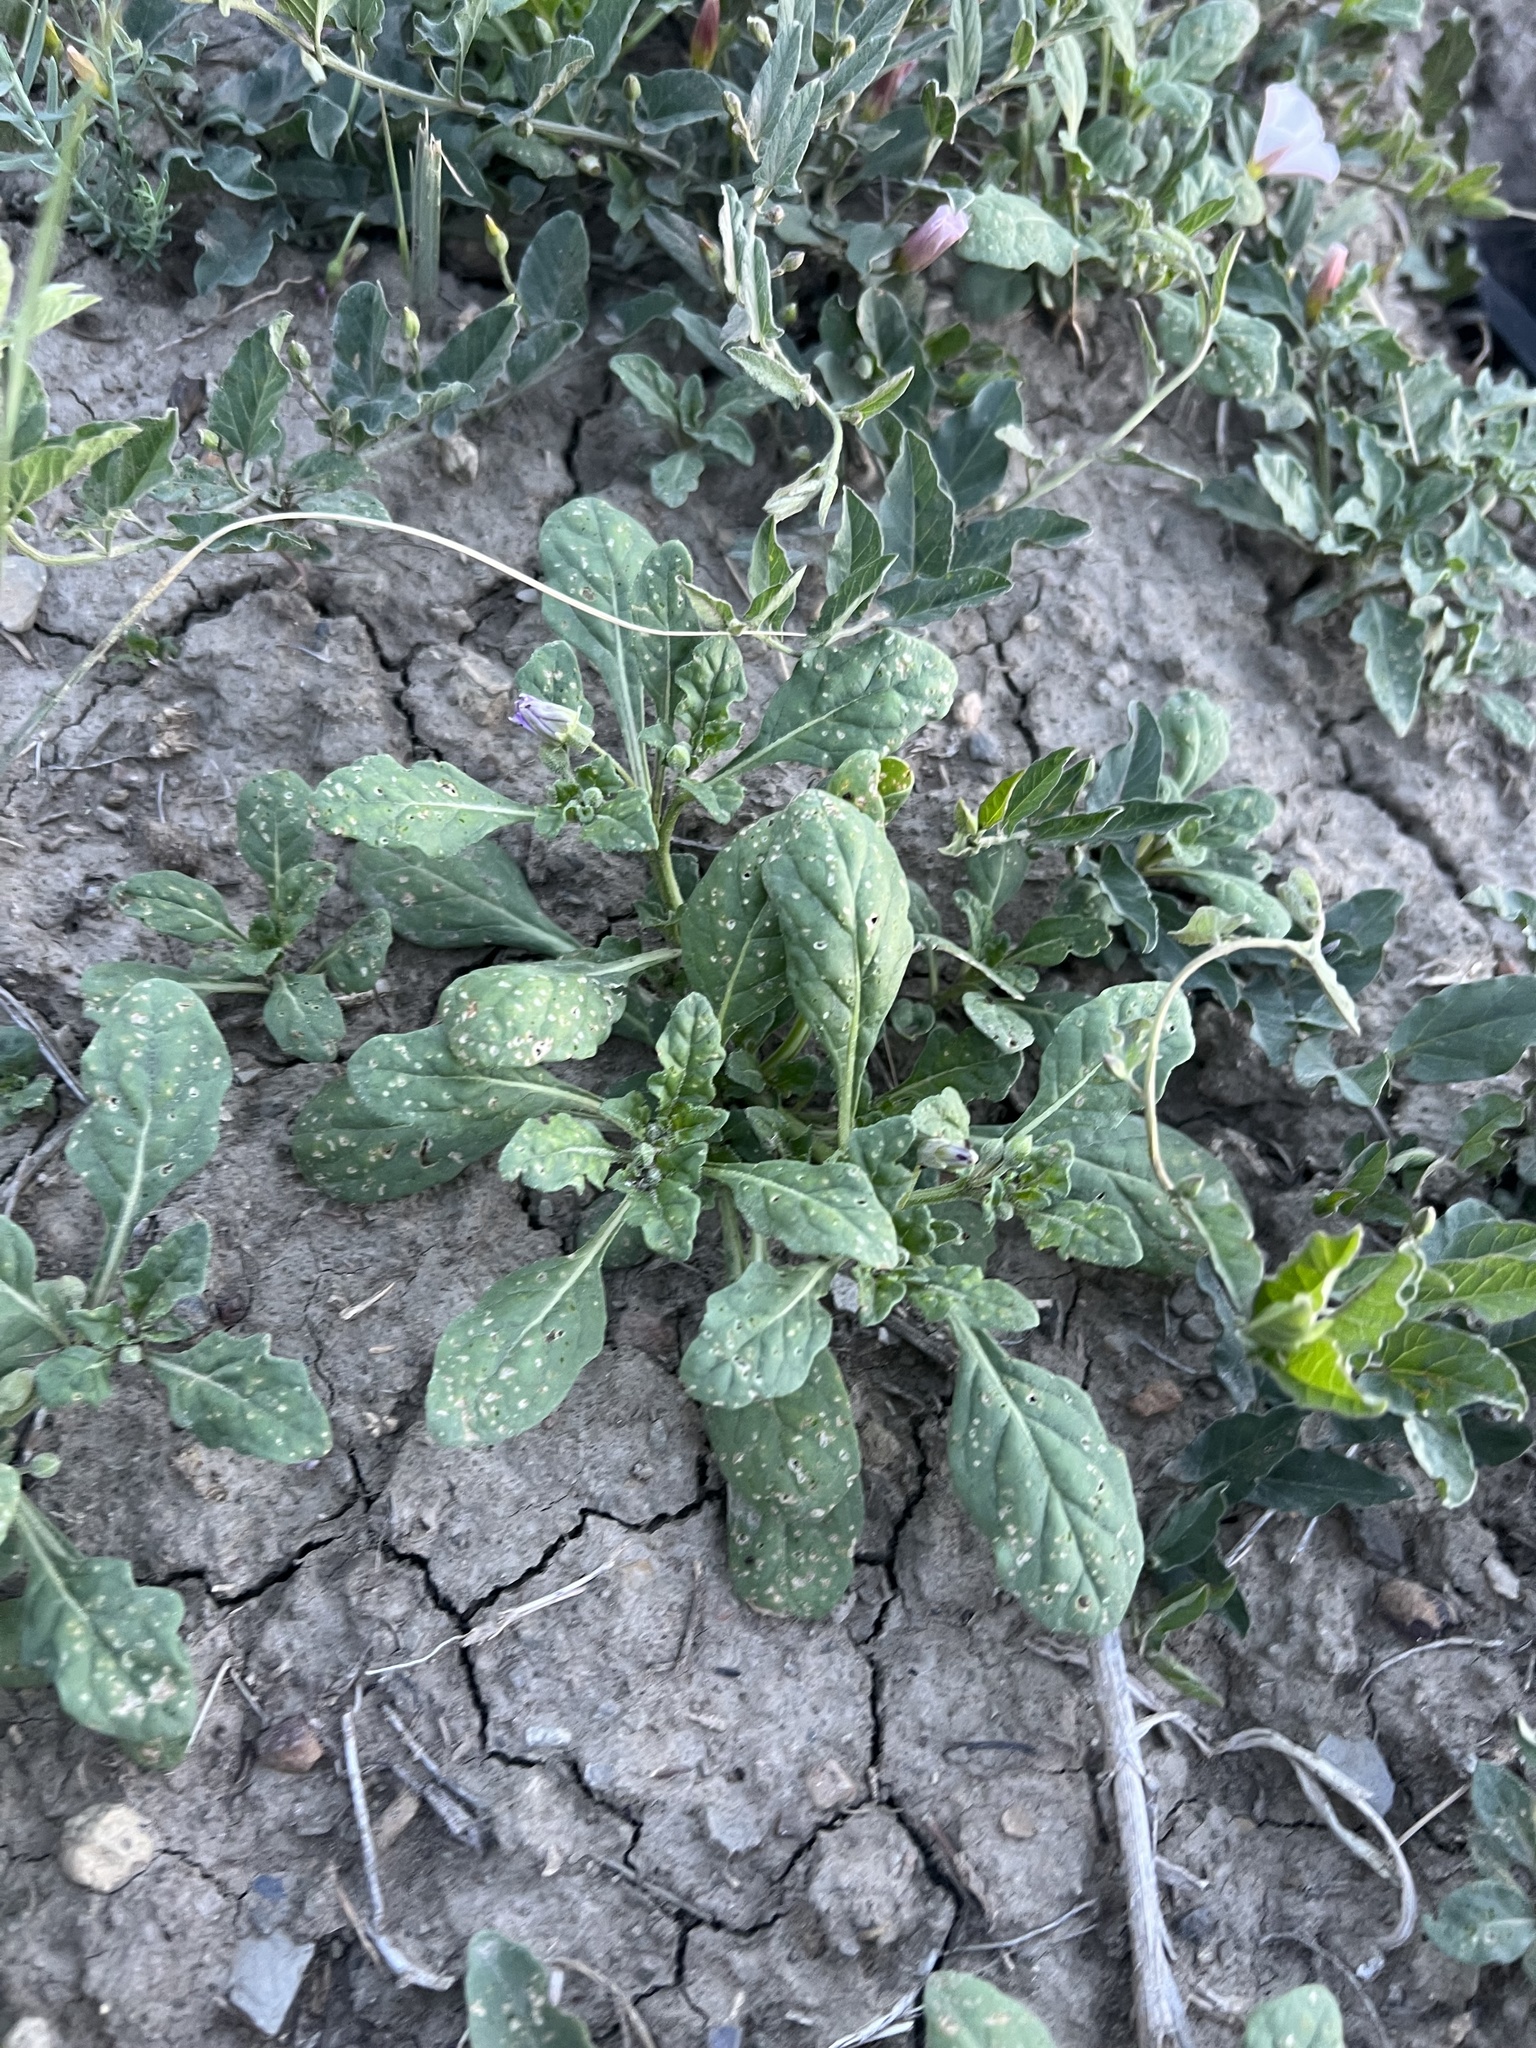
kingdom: Plantae
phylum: Tracheophyta
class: Magnoliopsida
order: Solanales
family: Solanaceae
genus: Quincula
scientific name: Quincula lobata
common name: Purple-ground-cherry
